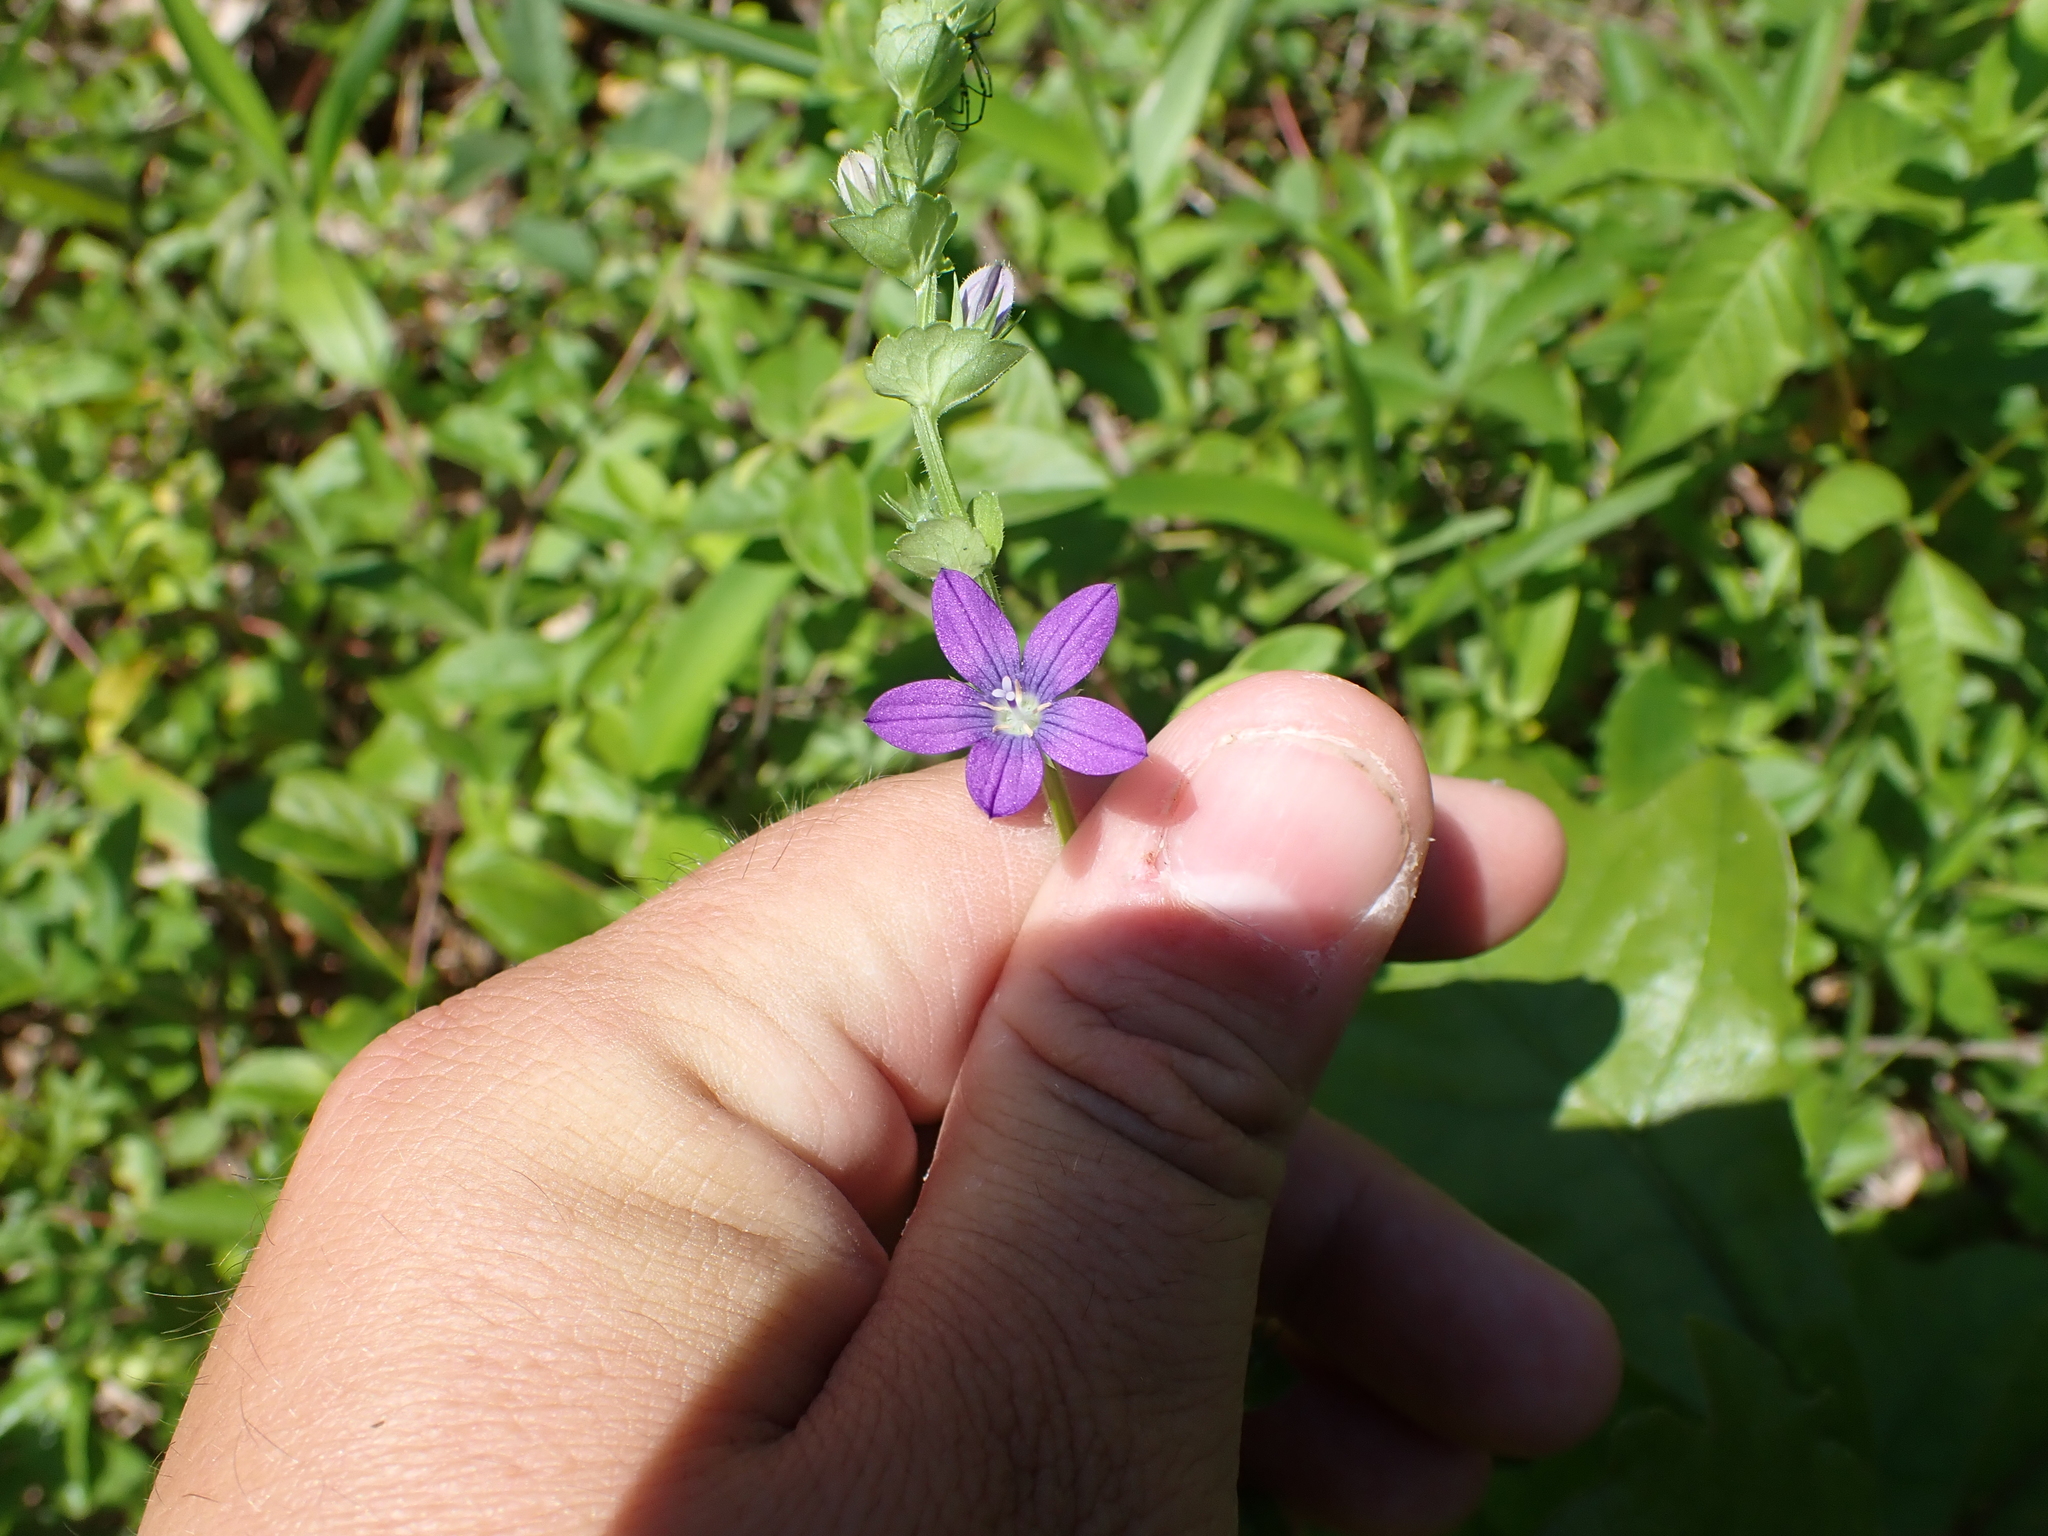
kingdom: Plantae
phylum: Tracheophyta
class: Magnoliopsida
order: Asterales
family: Campanulaceae
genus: Triodanis
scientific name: Triodanis perfoliata
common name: Clasping venus' looking-glass
